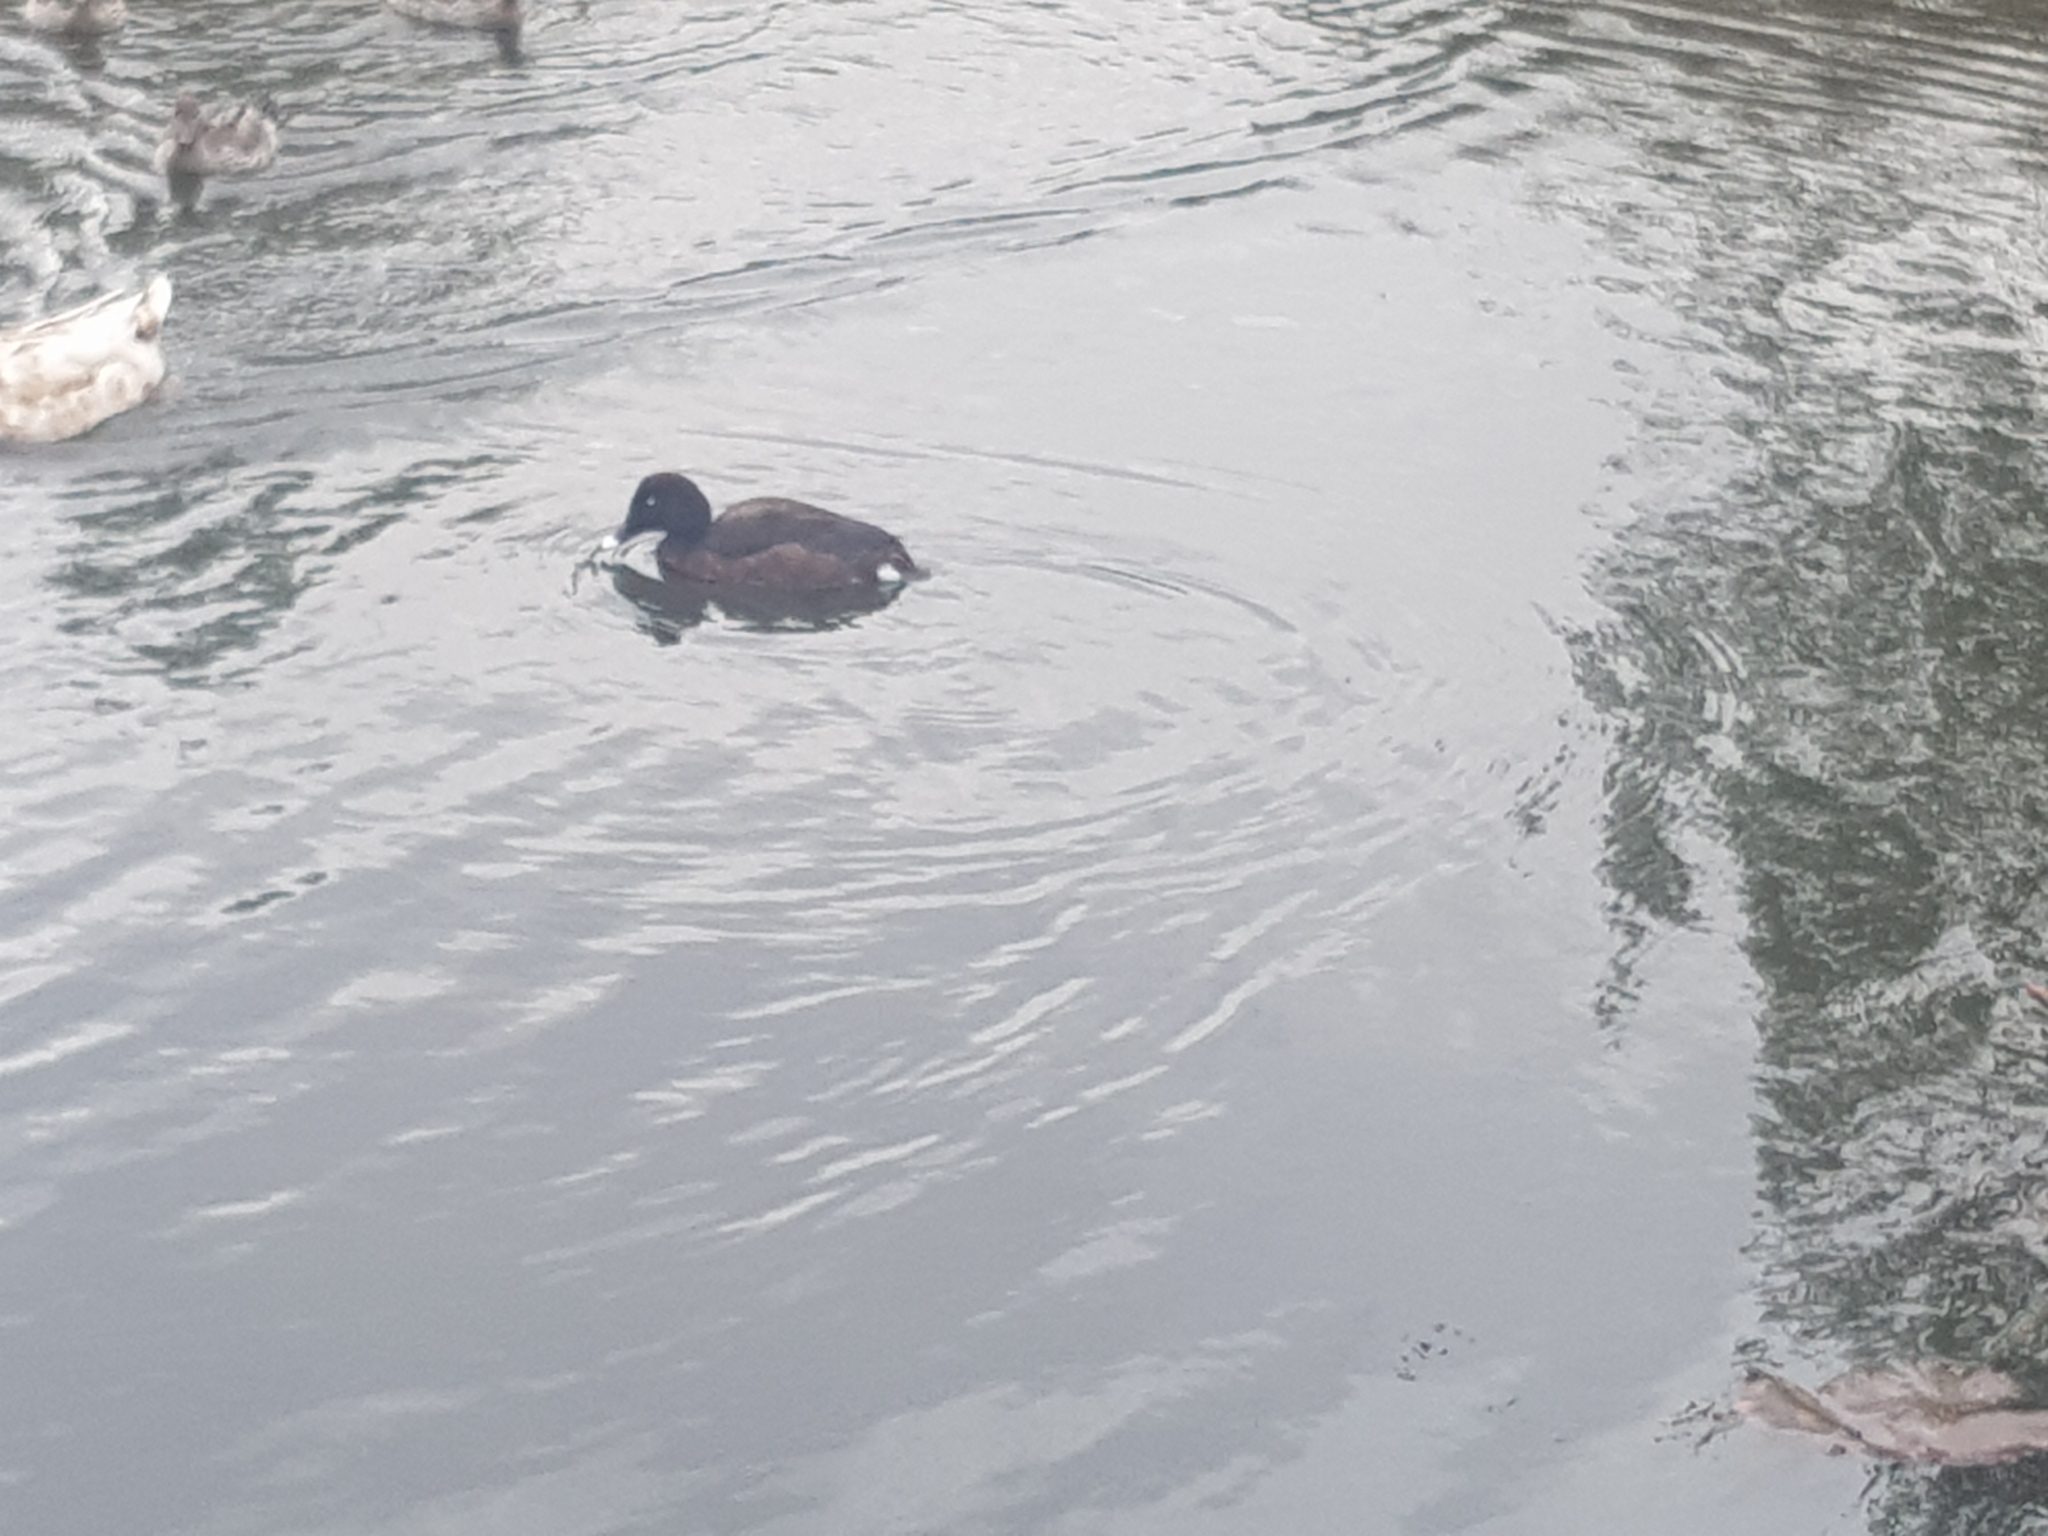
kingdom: Animalia
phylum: Chordata
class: Aves
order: Anseriformes
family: Anatidae
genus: Aythya
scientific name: Aythya australis
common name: Hardhead
